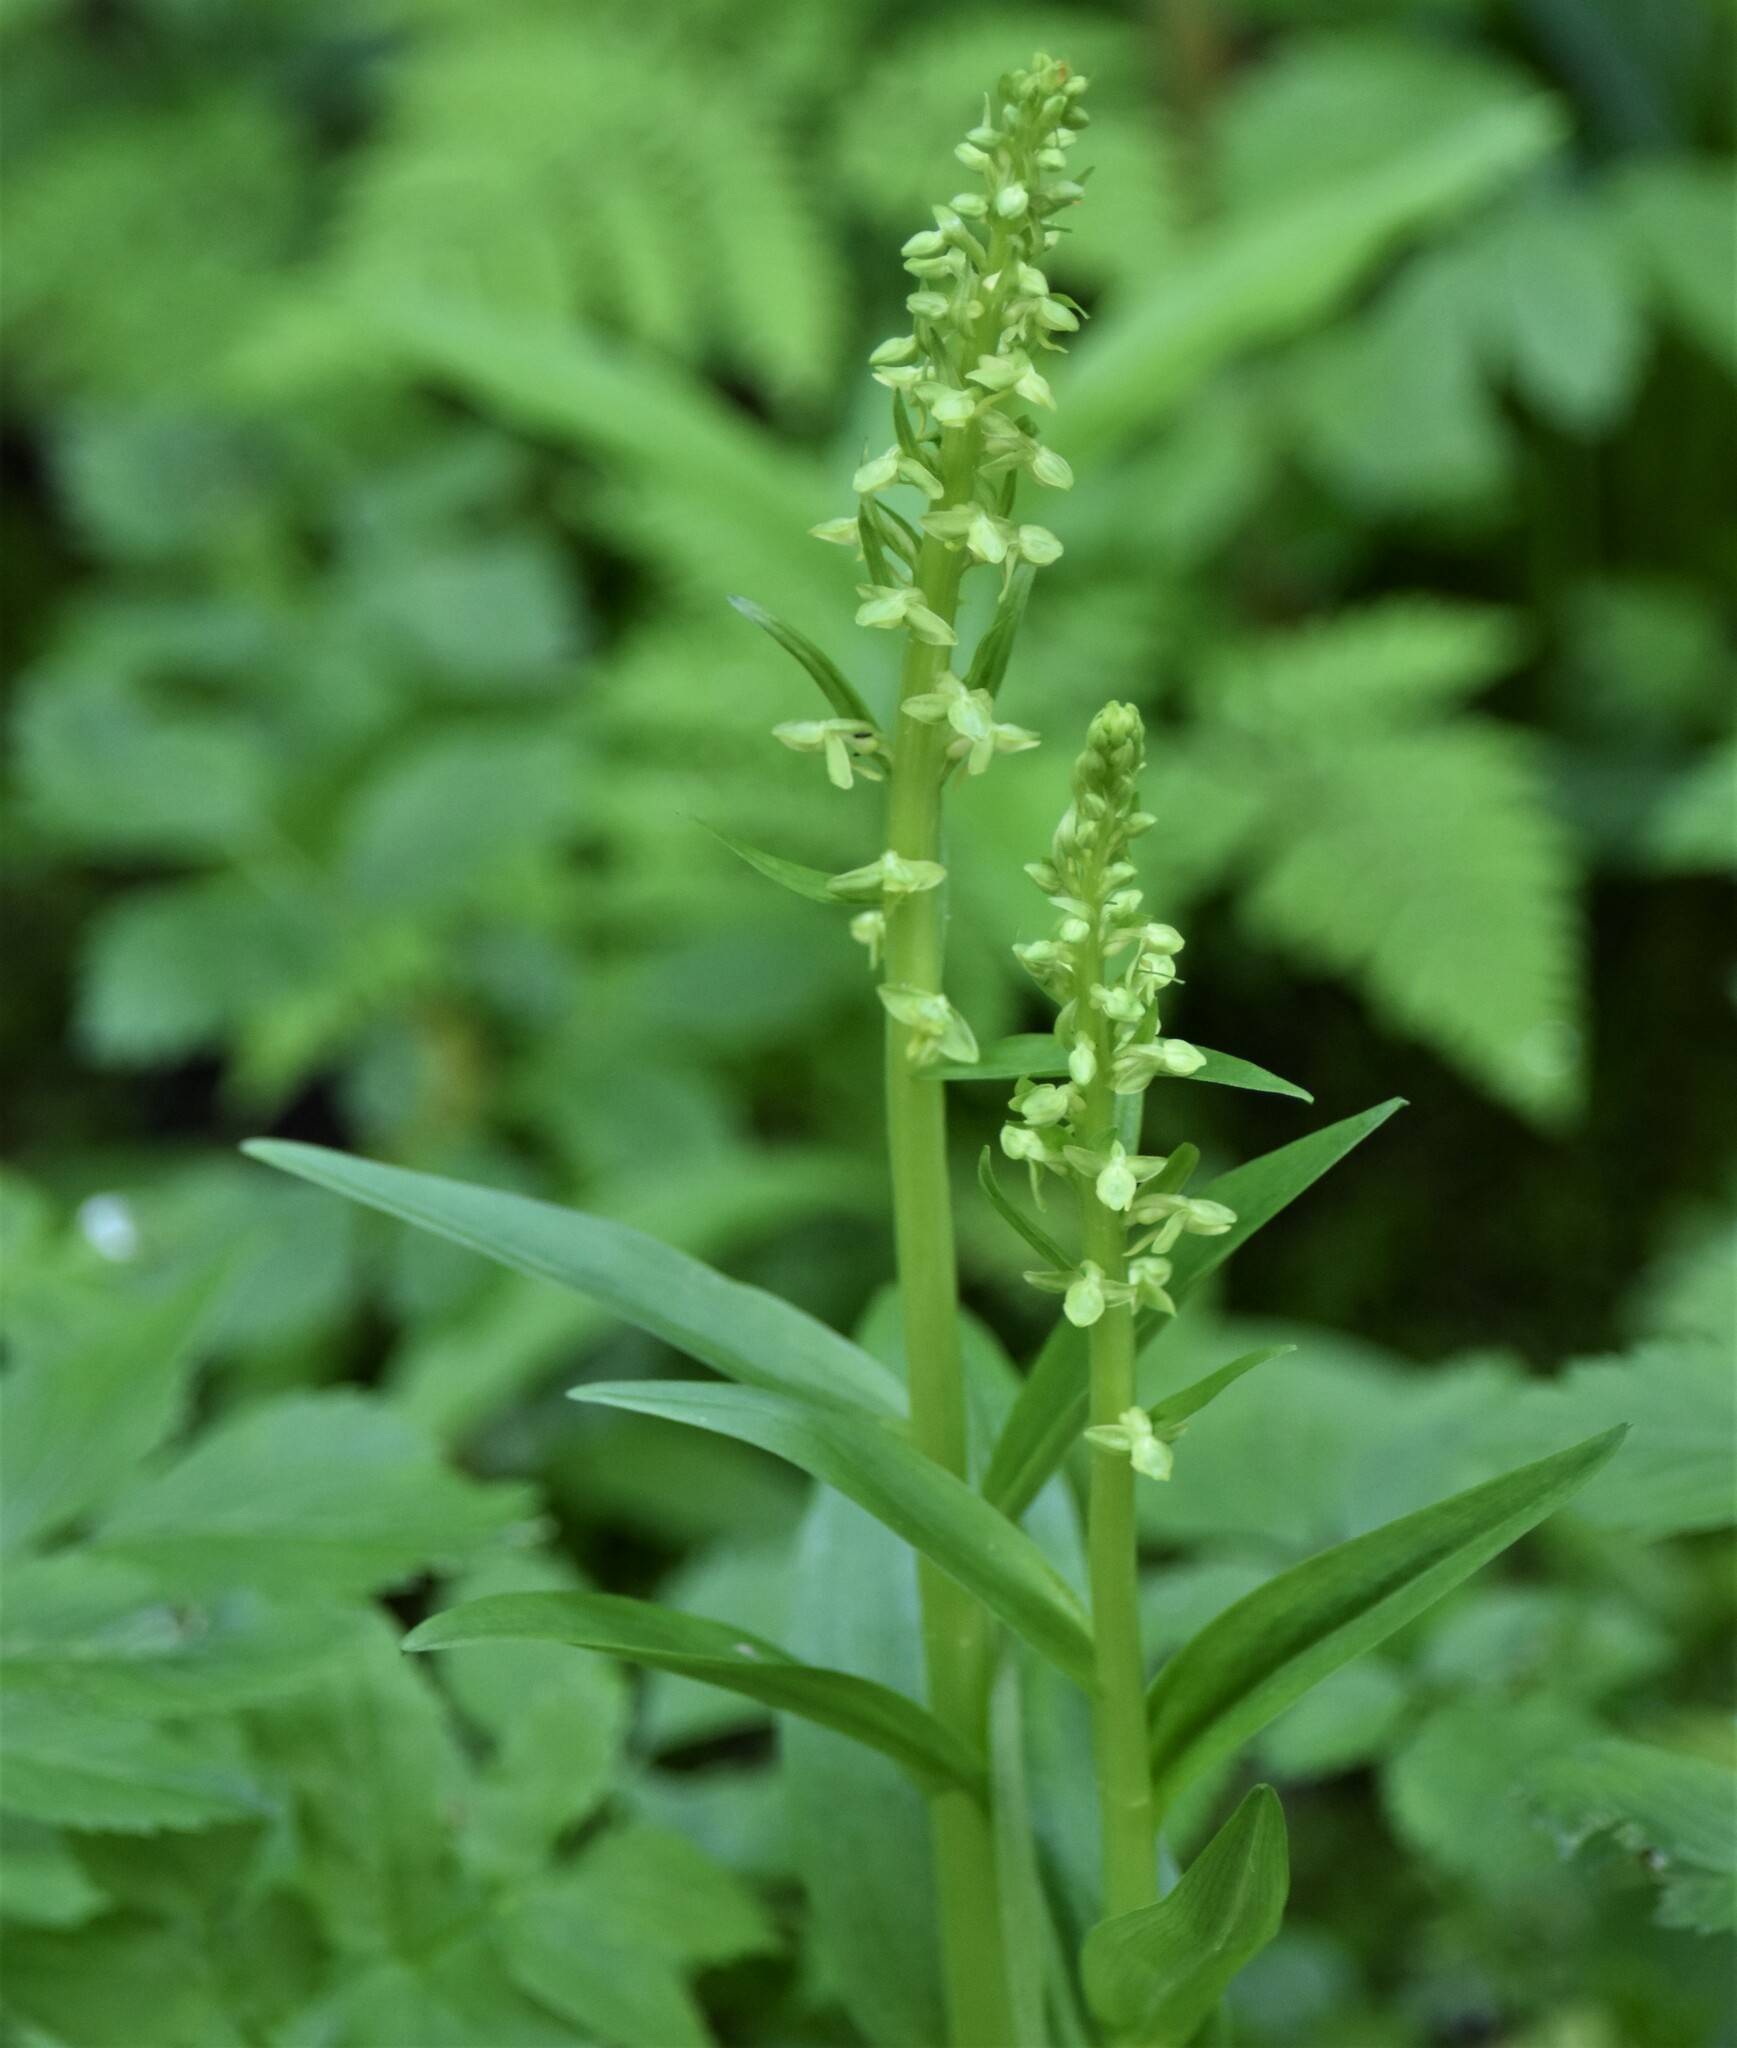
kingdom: Plantae
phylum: Tracheophyta
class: Liliopsida
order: Asparagales
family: Orchidaceae
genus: Platanthera
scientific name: Platanthera stricta
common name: Slender bog orchid
